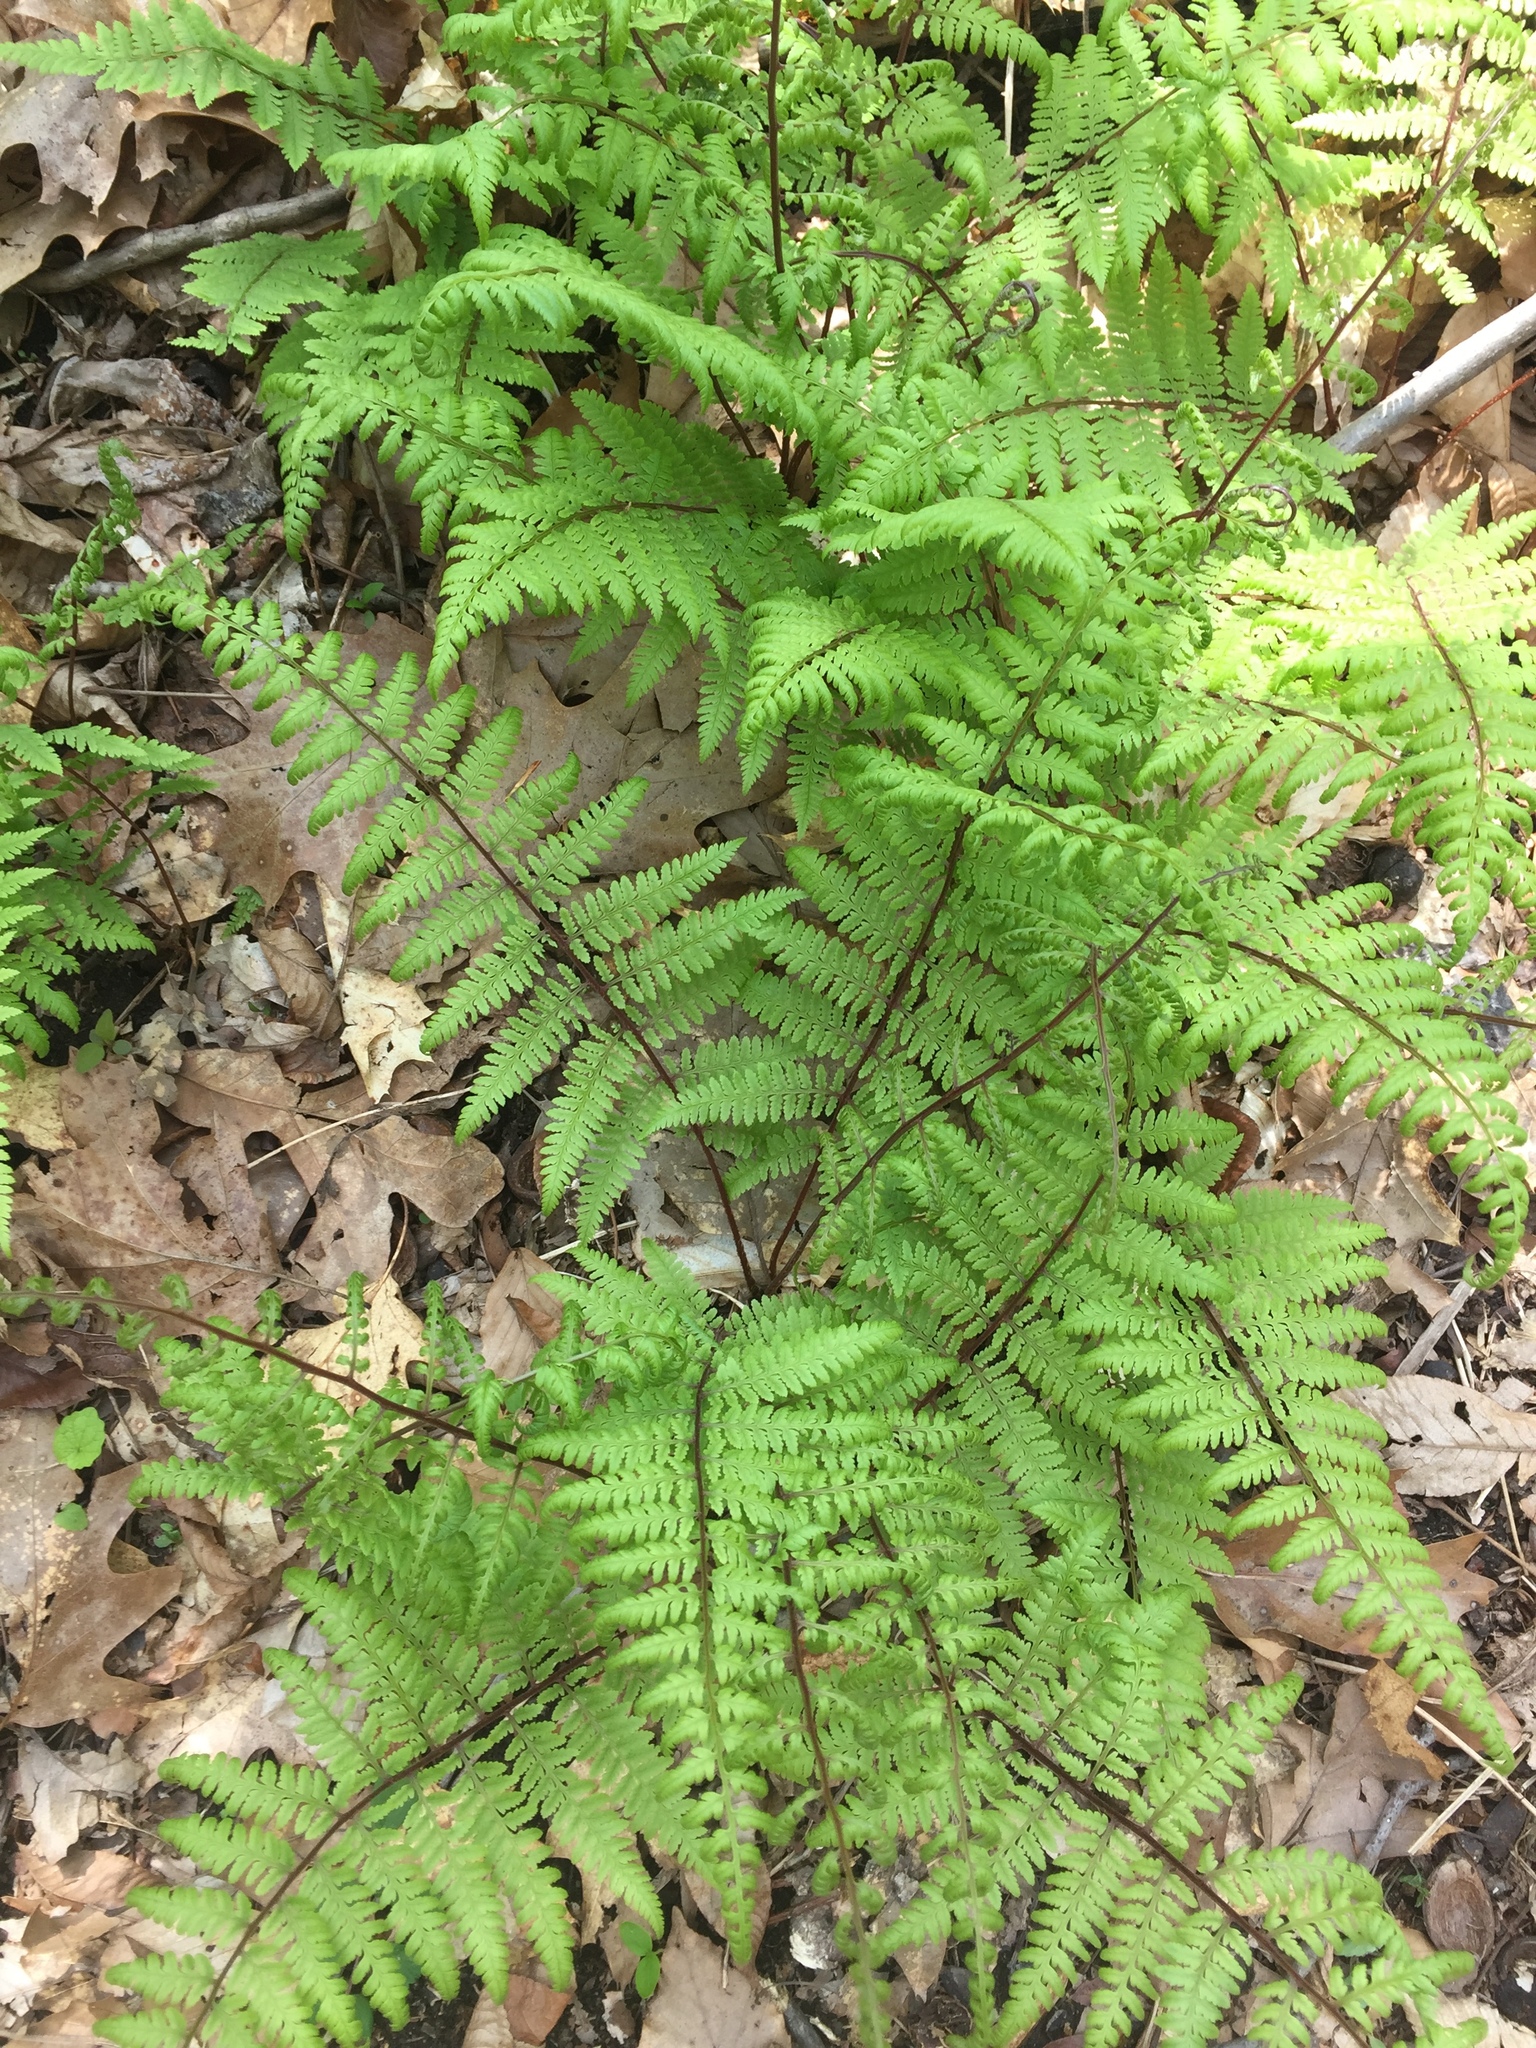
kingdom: Plantae
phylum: Tracheophyta
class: Polypodiopsida
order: Polypodiales
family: Athyriaceae
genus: Athyrium
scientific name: Athyrium asplenioides
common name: Southern lady fern
